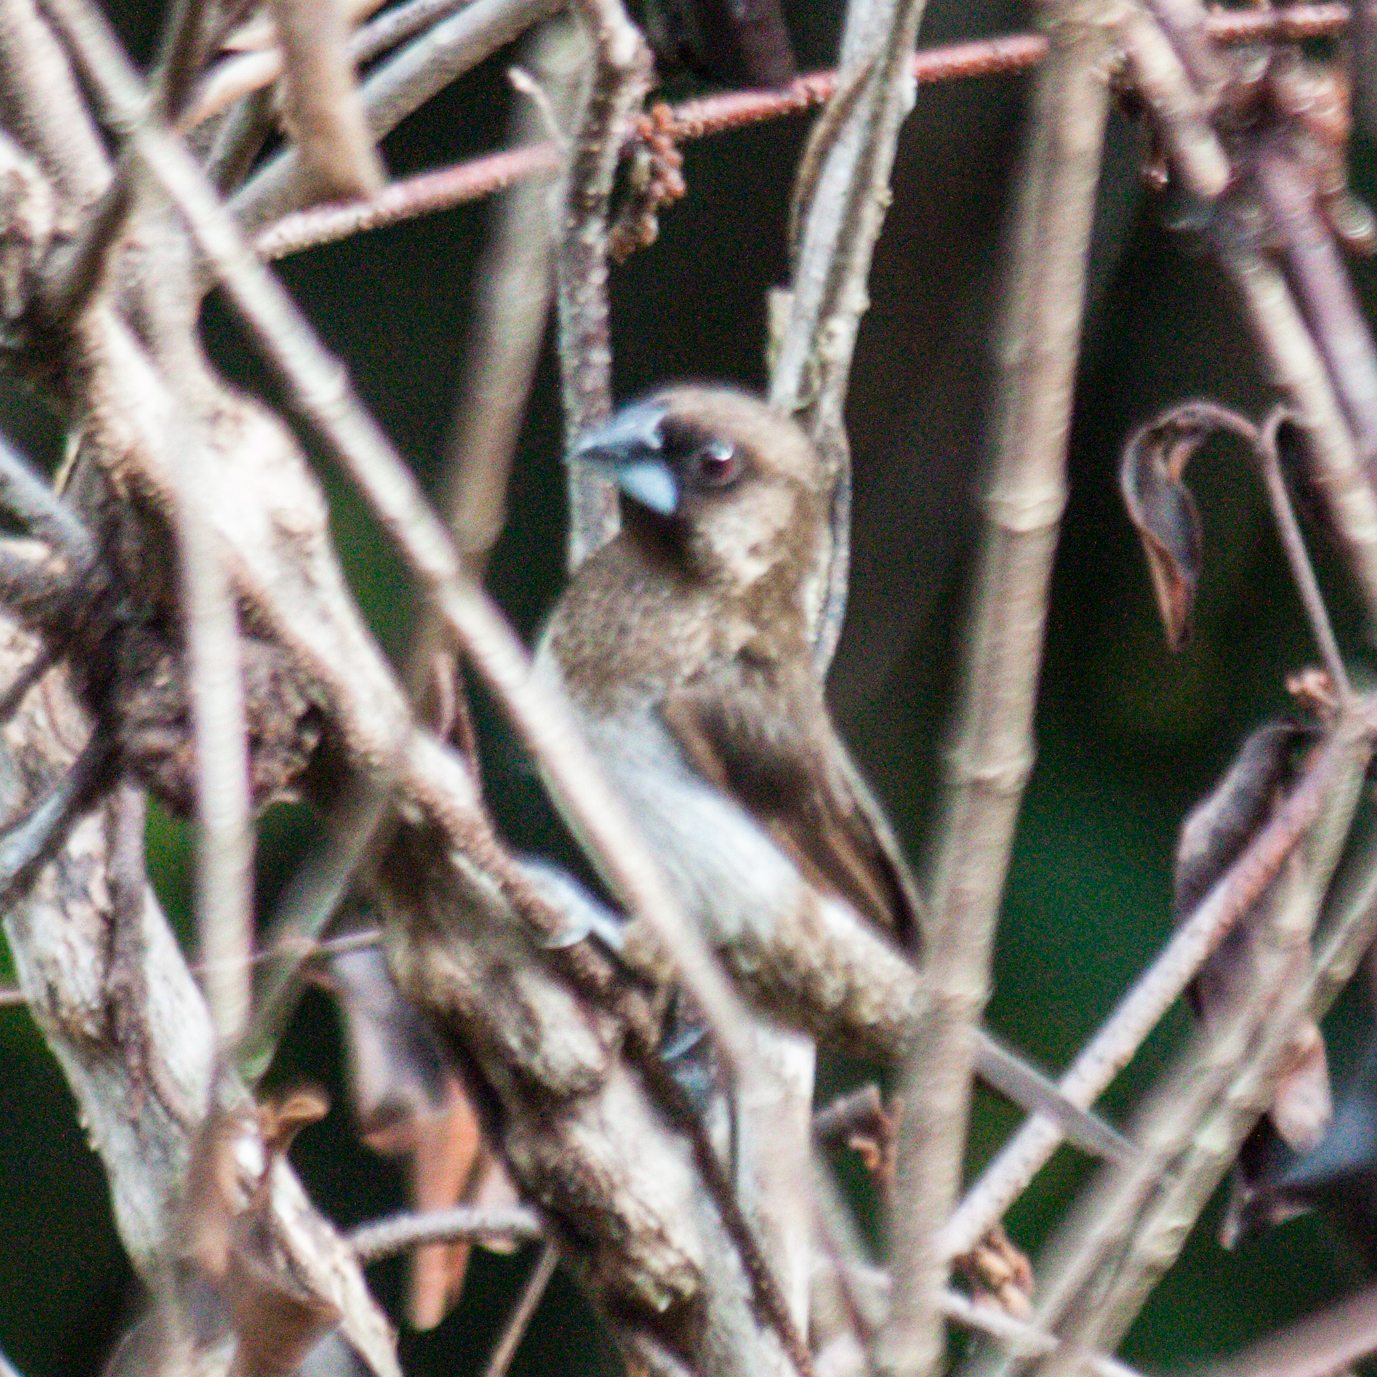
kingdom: Animalia
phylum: Chordata
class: Aves
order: Passeriformes
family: Estrildidae
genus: Lonchura
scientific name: Lonchura striata
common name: White-rumped munia
